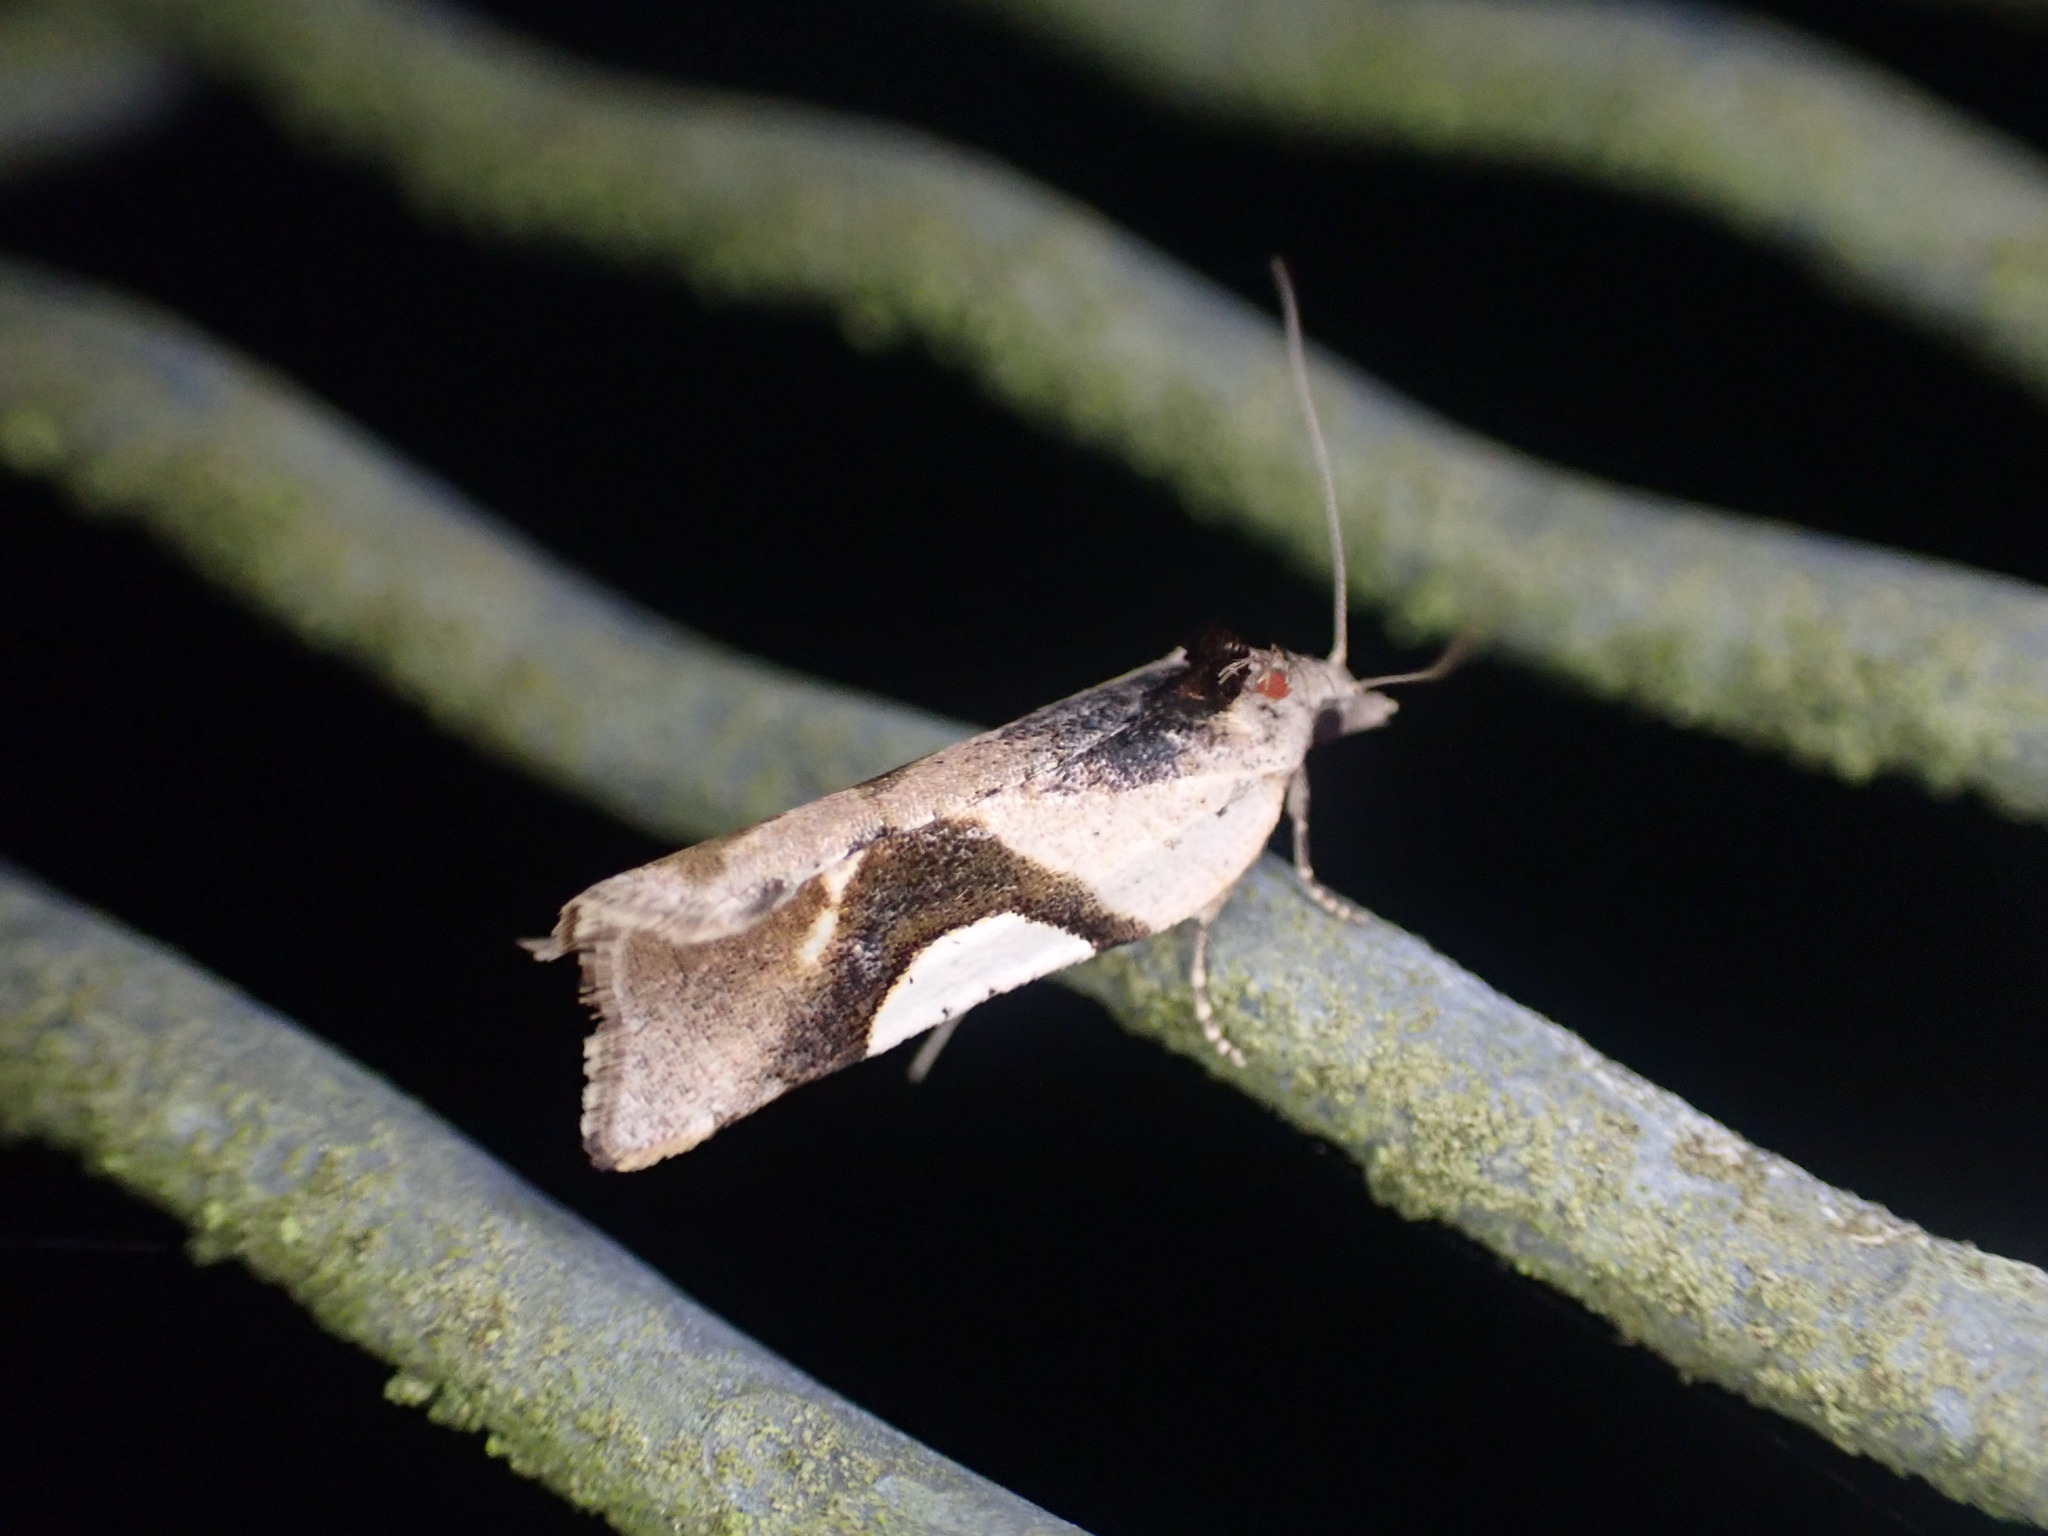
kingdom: Animalia
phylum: Arthropoda
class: Insecta
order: Lepidoptera
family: Tortricidae
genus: Pyrgotis
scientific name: Pyrgotis plagiatana
